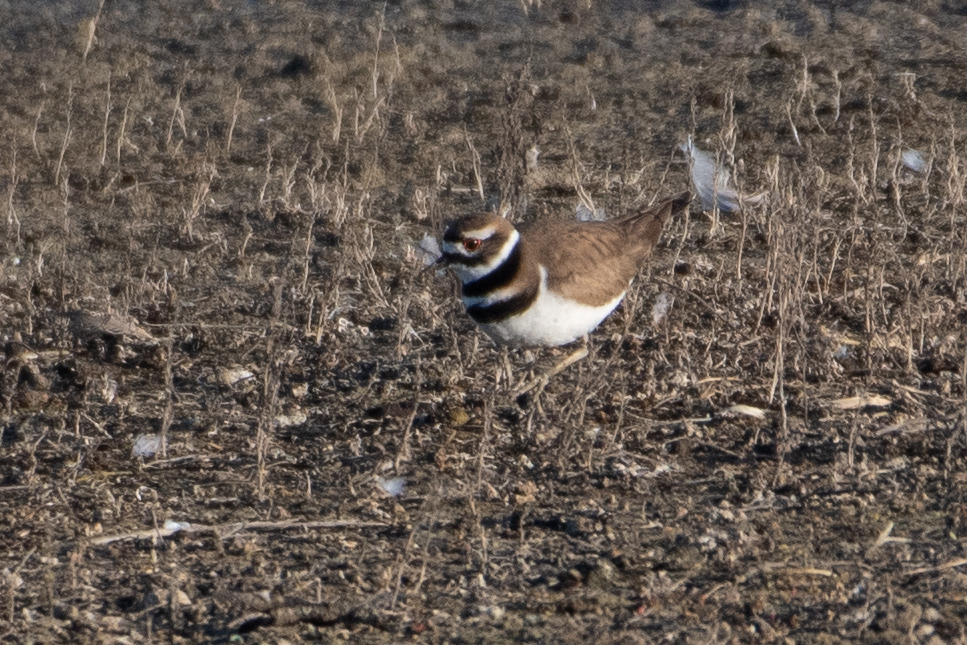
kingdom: Animalia
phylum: Chordata
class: Aves
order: Charadriiformes
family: Charadriidae
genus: Charadrius
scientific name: Charadrius vociferus
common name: Killdeer
